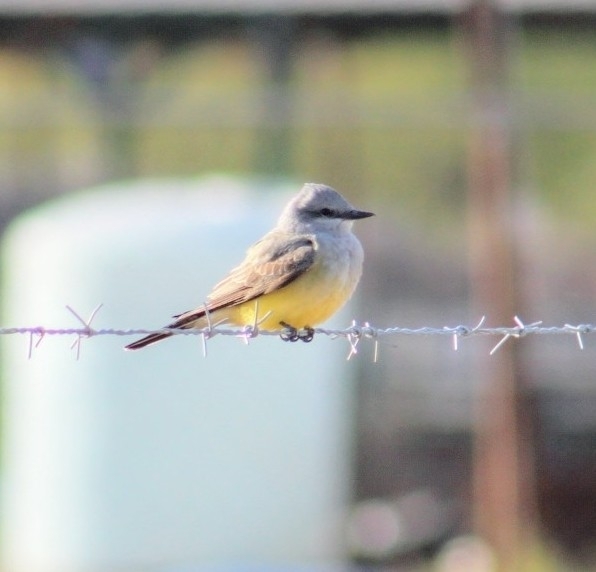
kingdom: Animalia
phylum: Chordata
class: Aves
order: Passeriformes
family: Tyrannidae
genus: Tyrannus
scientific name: Tyrannus verticalis
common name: Western kingbird
